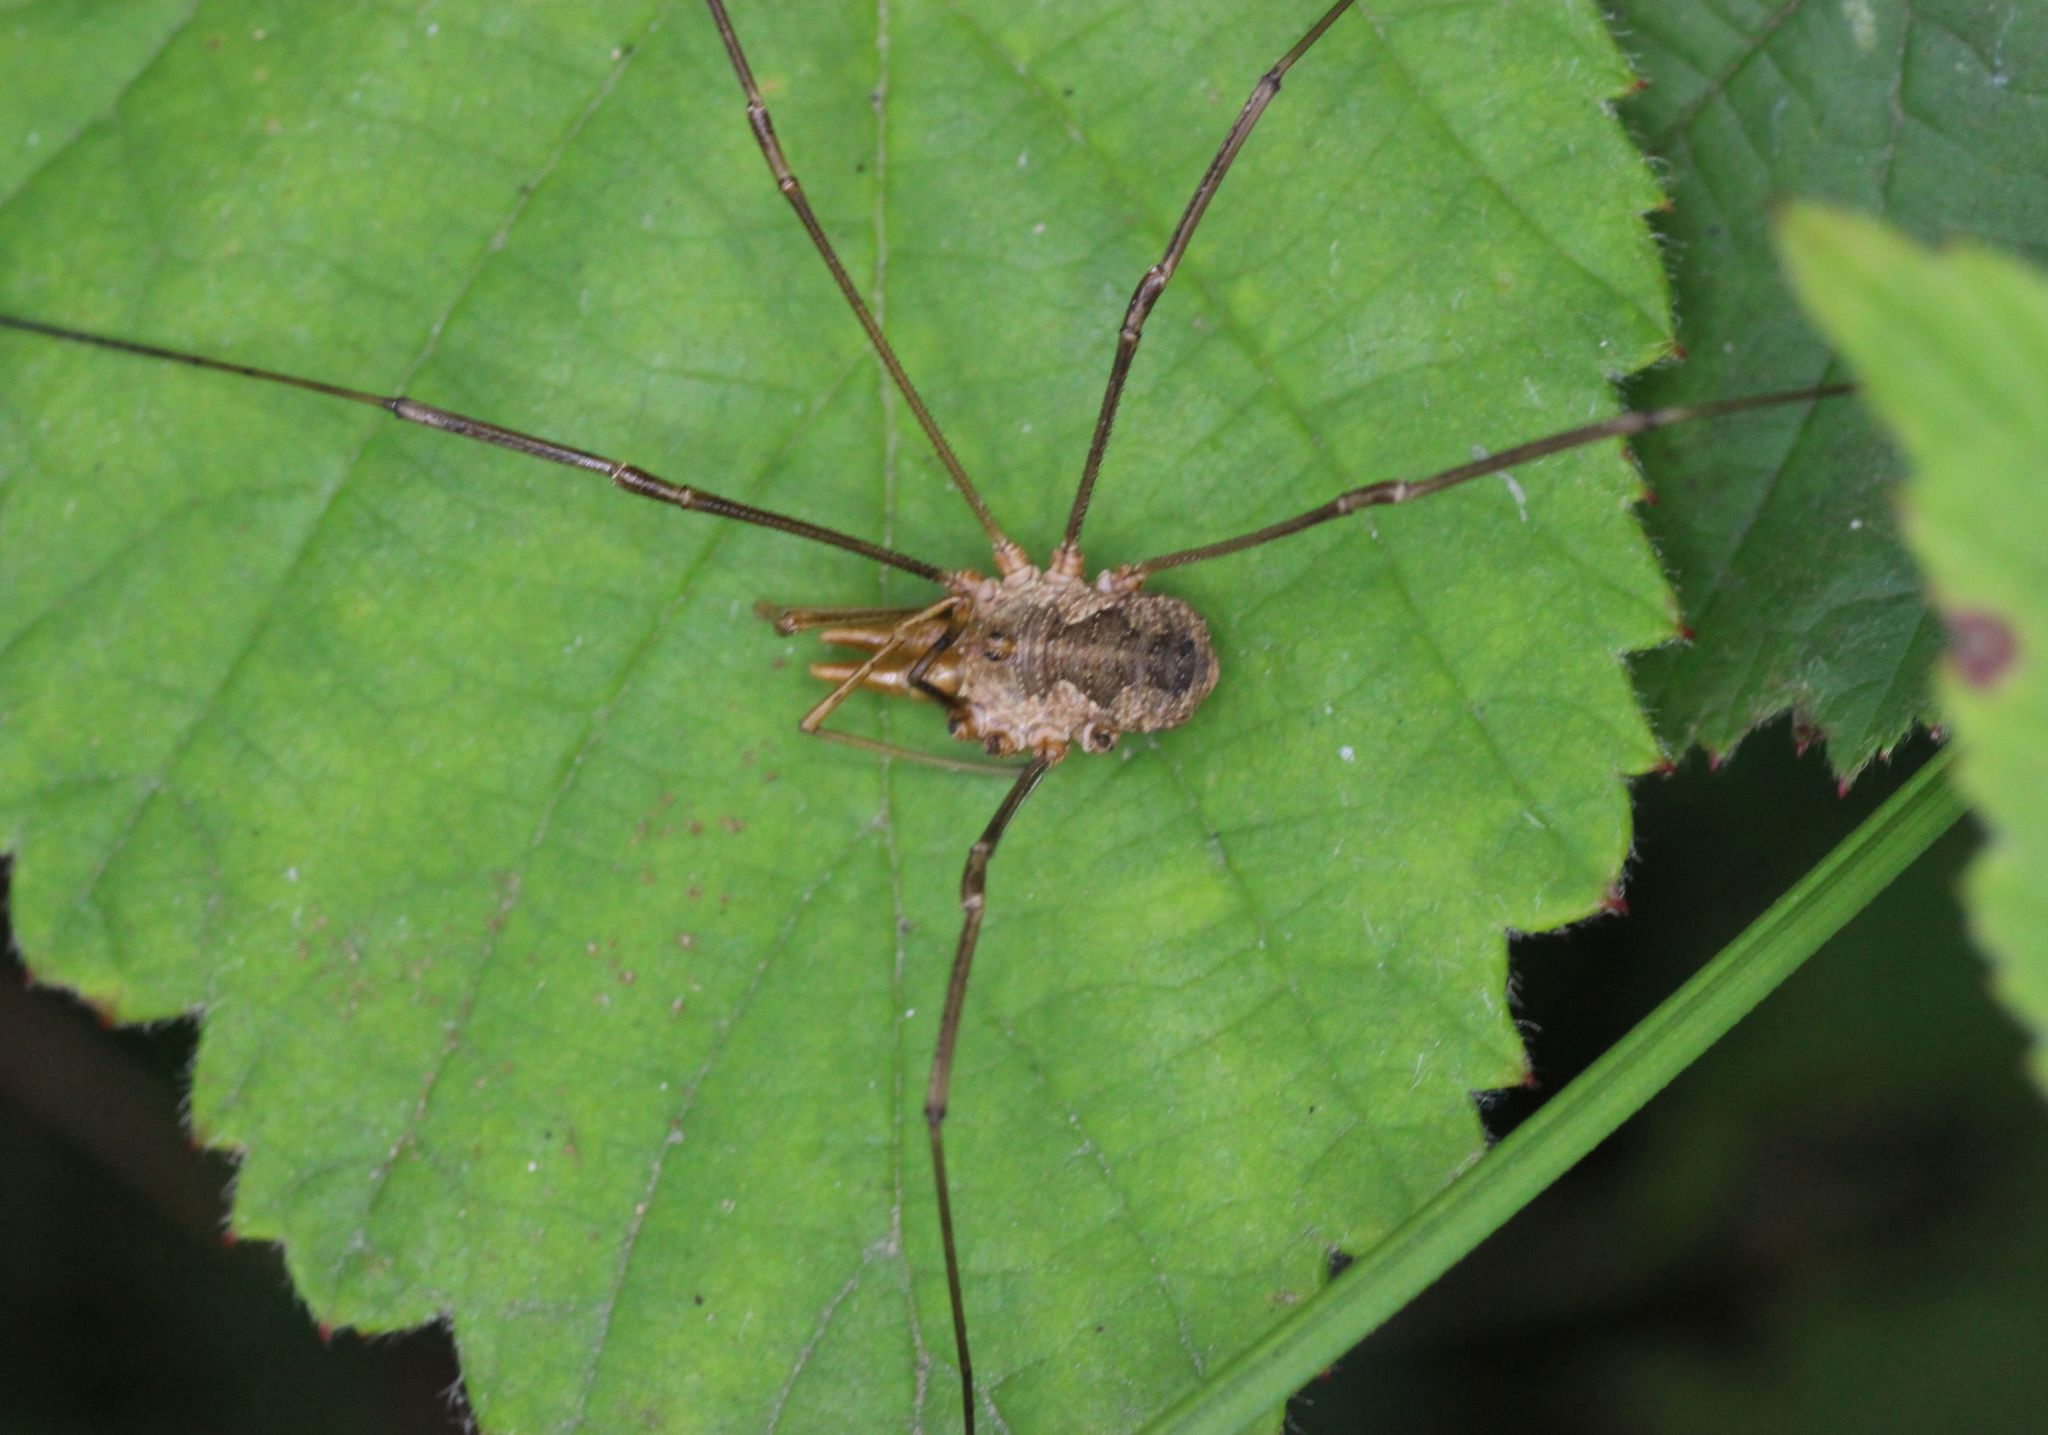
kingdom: Animalia
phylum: Arthropoda
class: Arachnida
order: Opiliones
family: Phalangiidae
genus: Phalangium
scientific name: Phalangium opilio
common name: Daddy longleg
